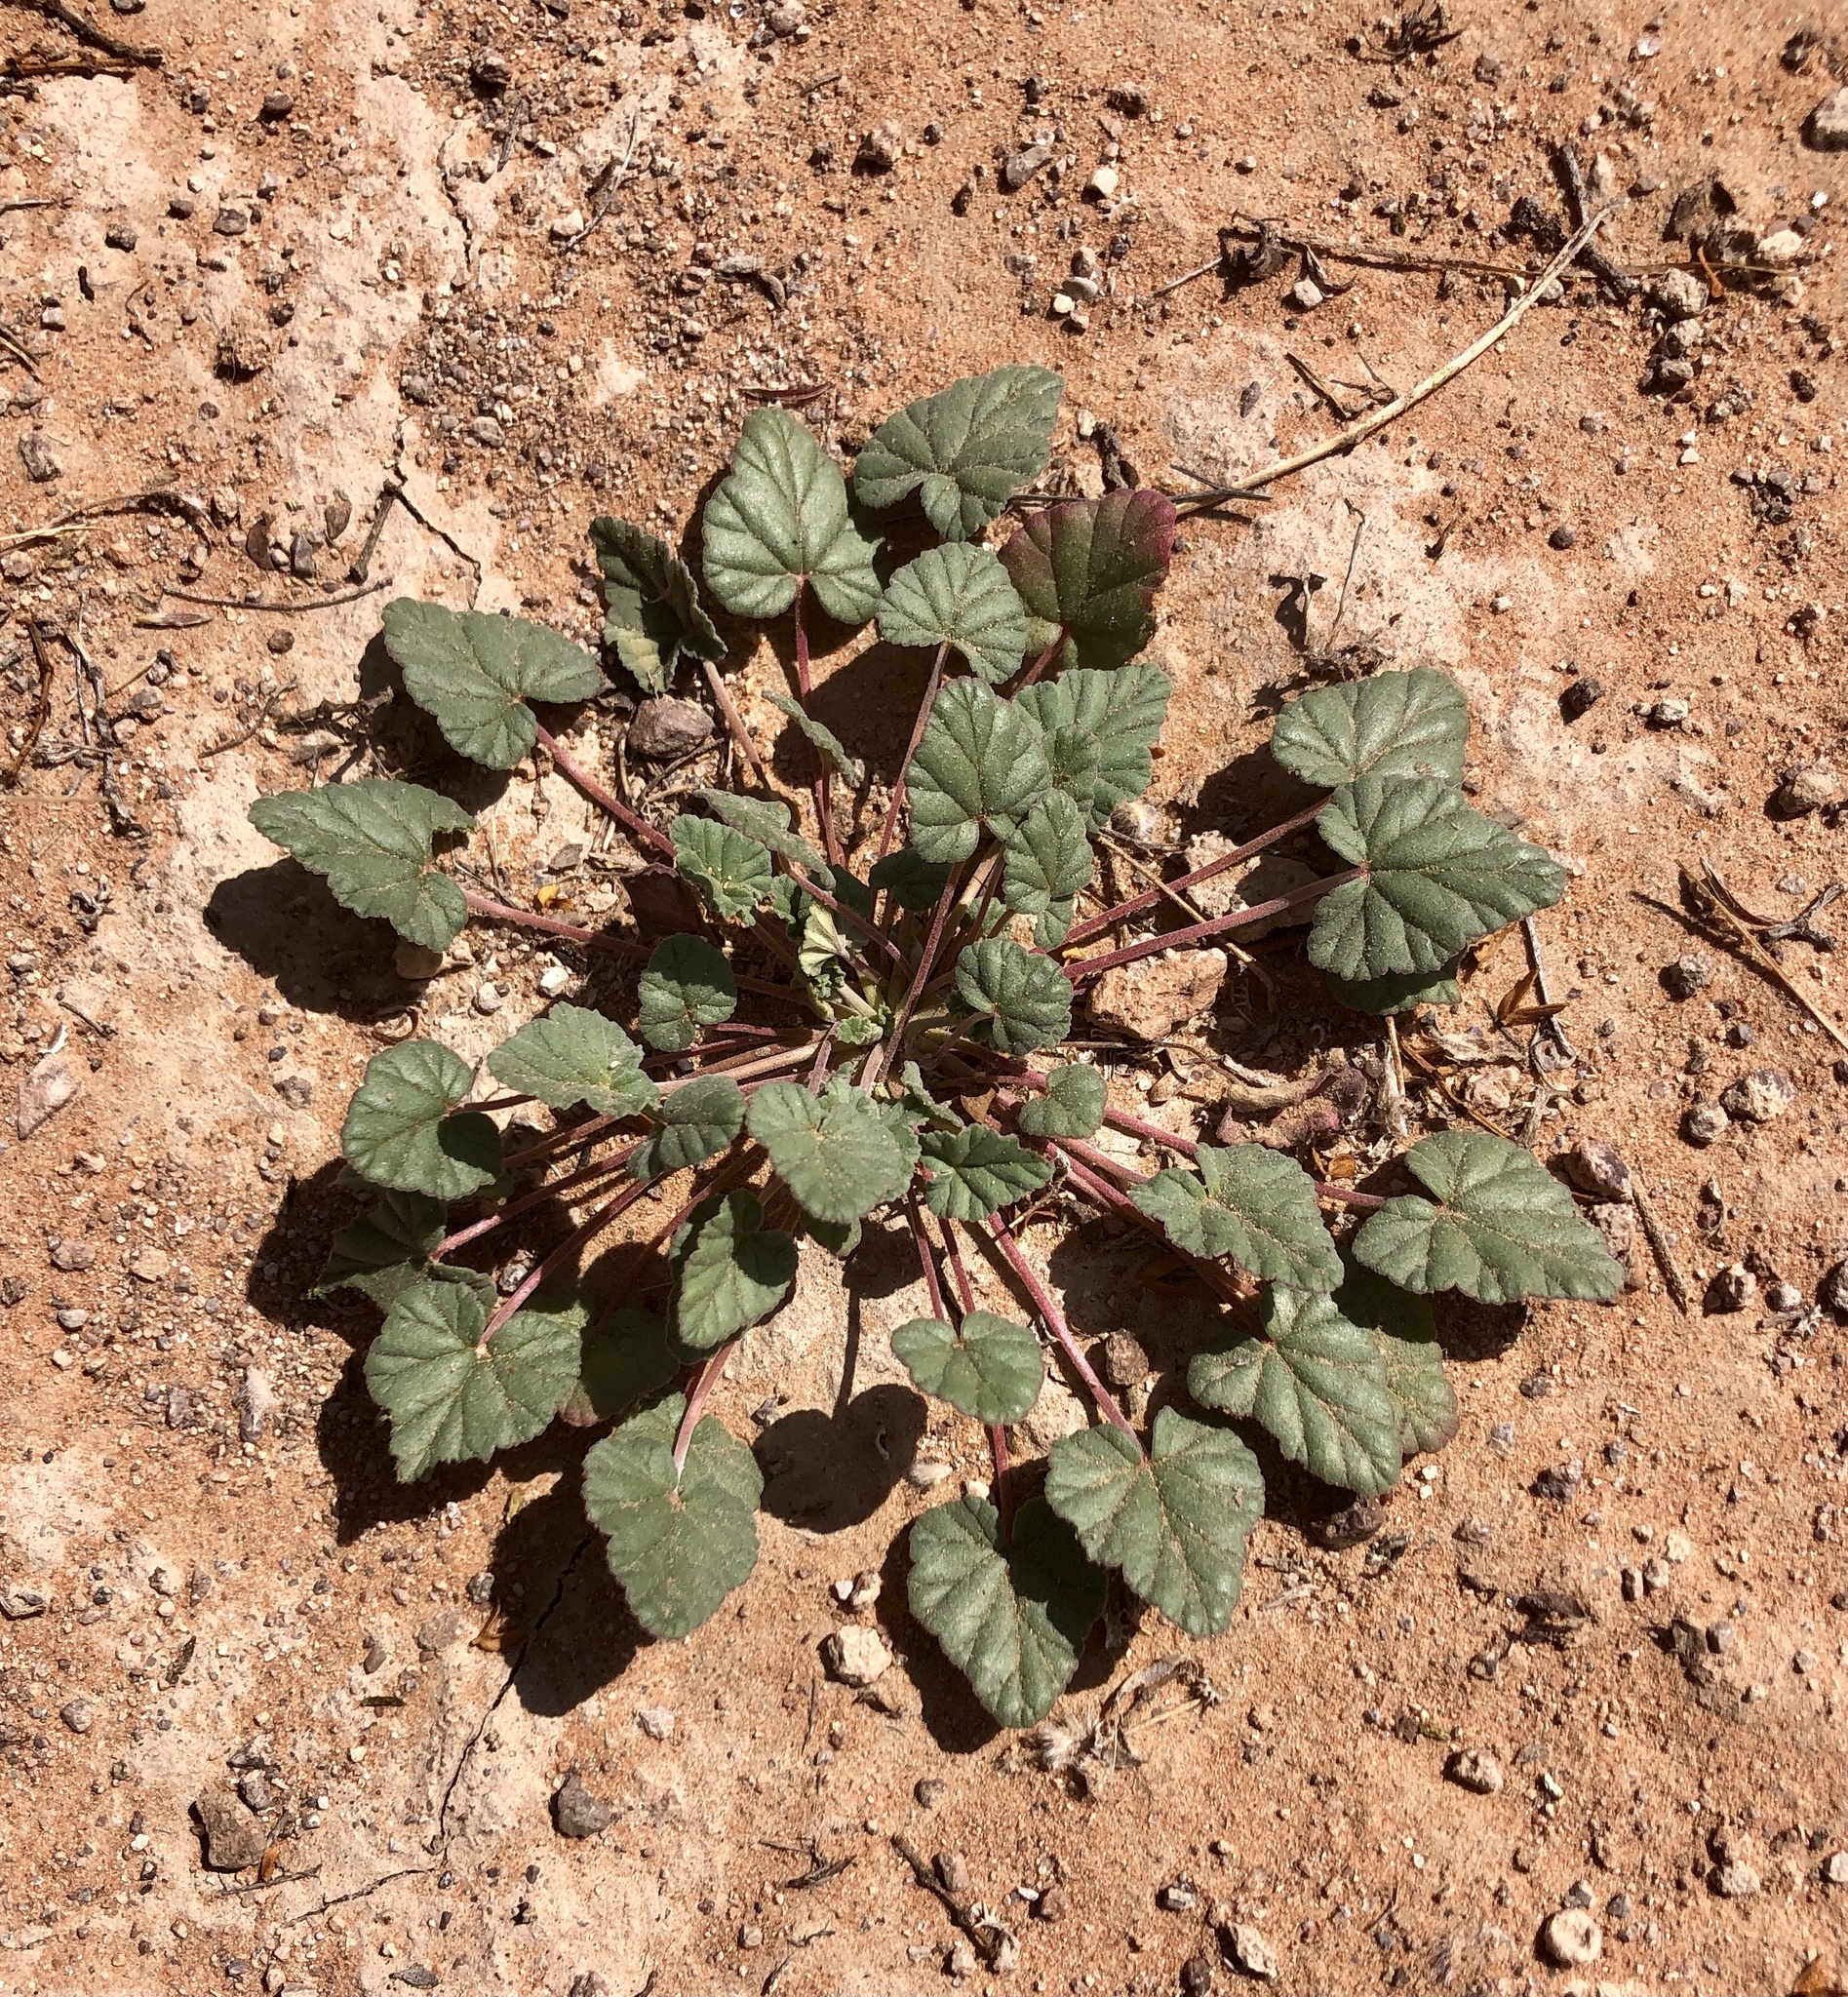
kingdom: Plantae
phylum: Tracheophyta
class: Magnoliopsida
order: Geraniales
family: Geraniaceae
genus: Erodium
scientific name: Erodium texanum
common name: Texas stork's-bill
